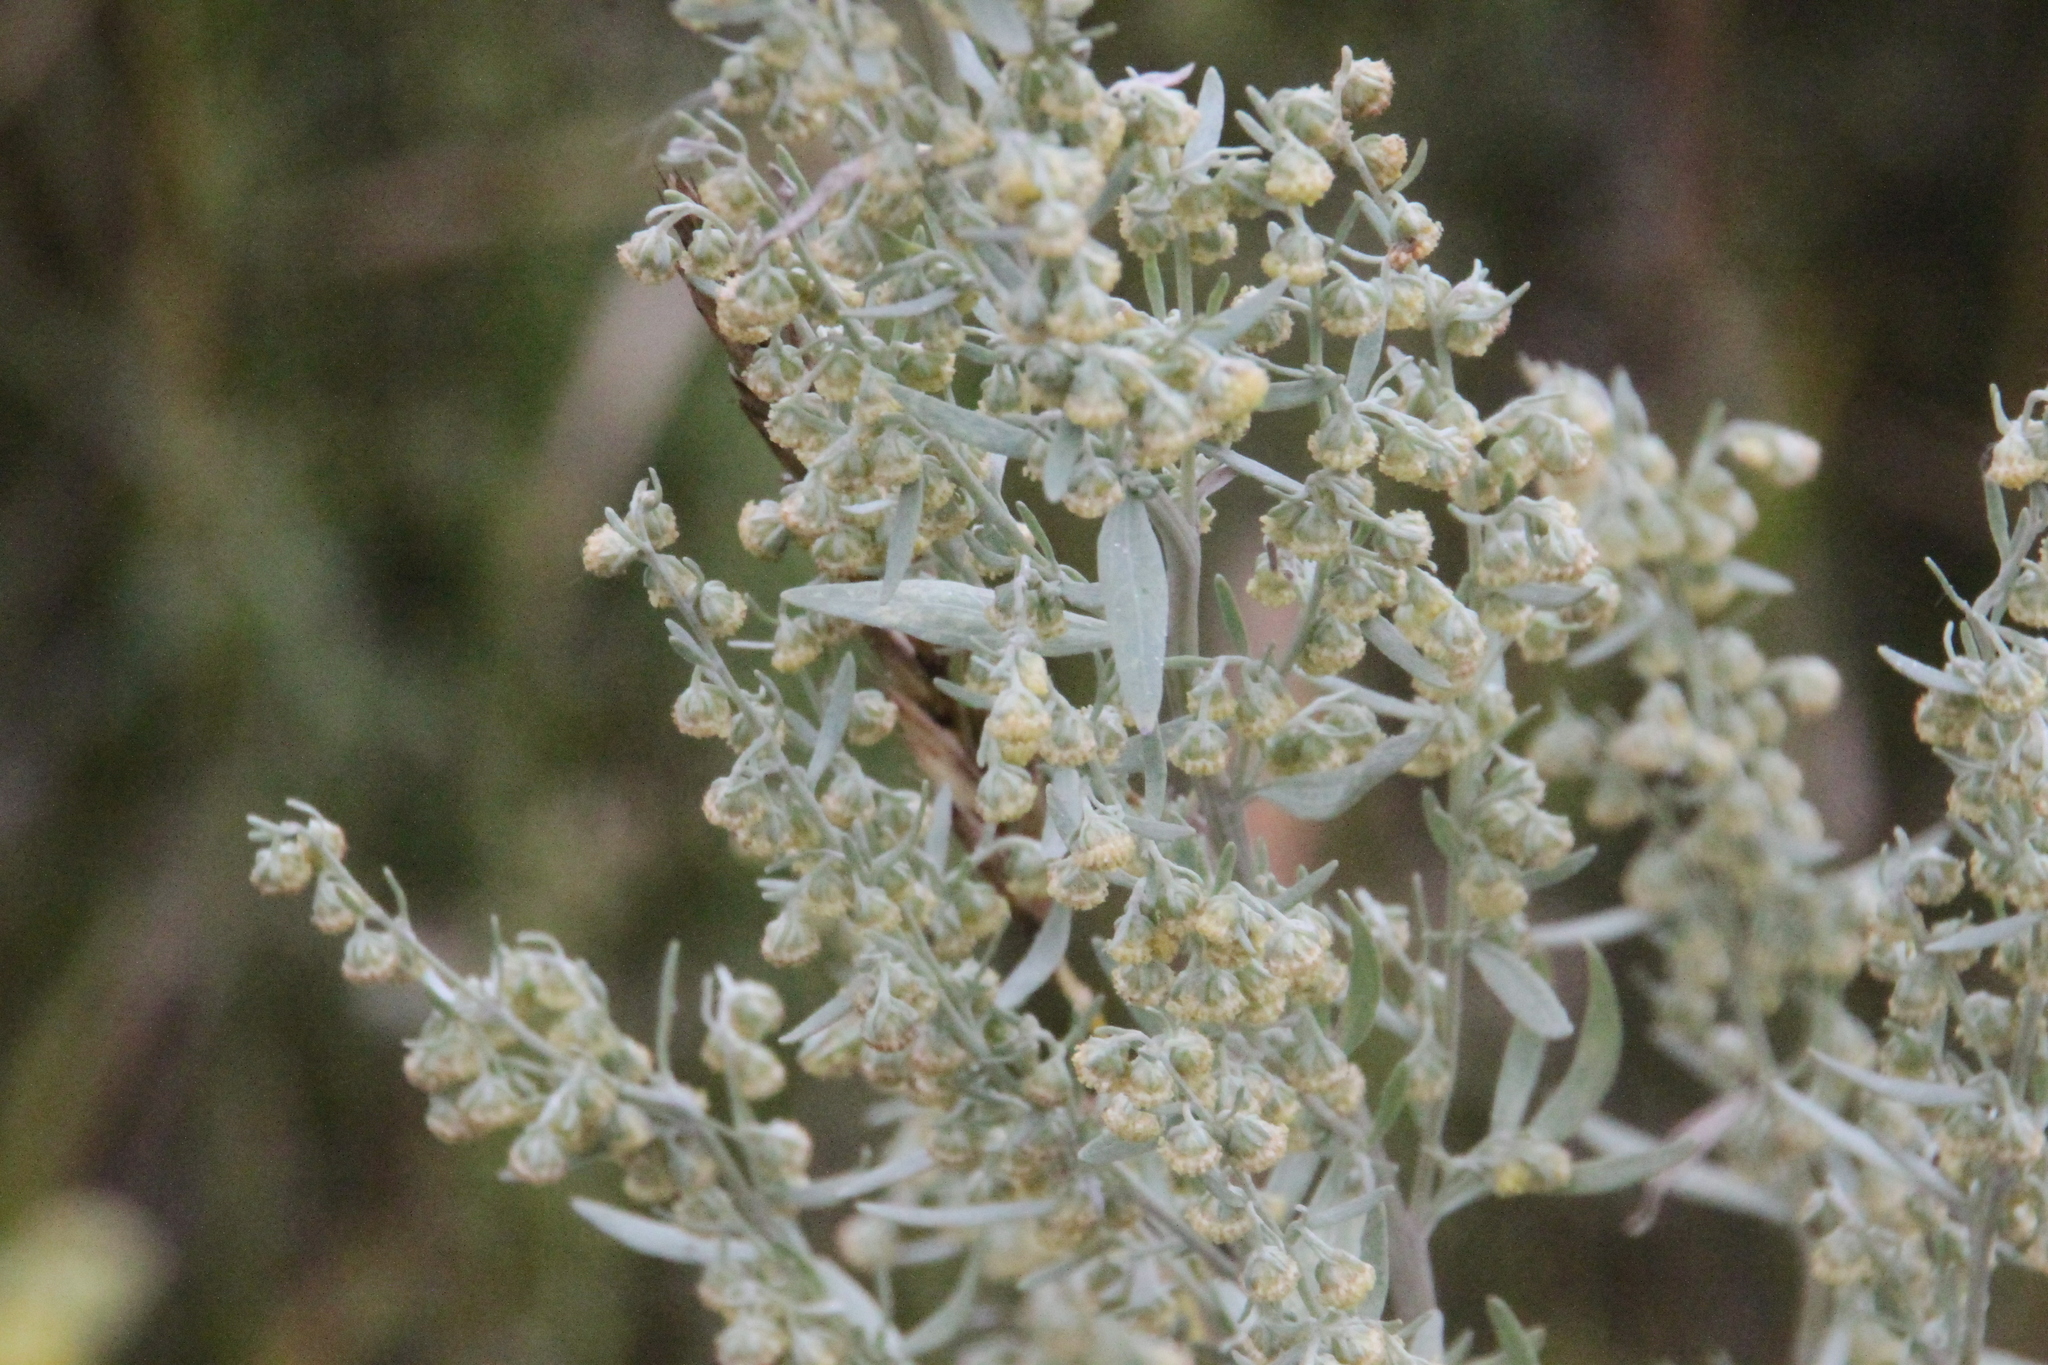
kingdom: Plantae
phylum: Tracheophyta
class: Magnoliopsida
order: Asterales
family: Asteraceae
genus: Artemisia
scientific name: Artemisia absinthium
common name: Wormwood
